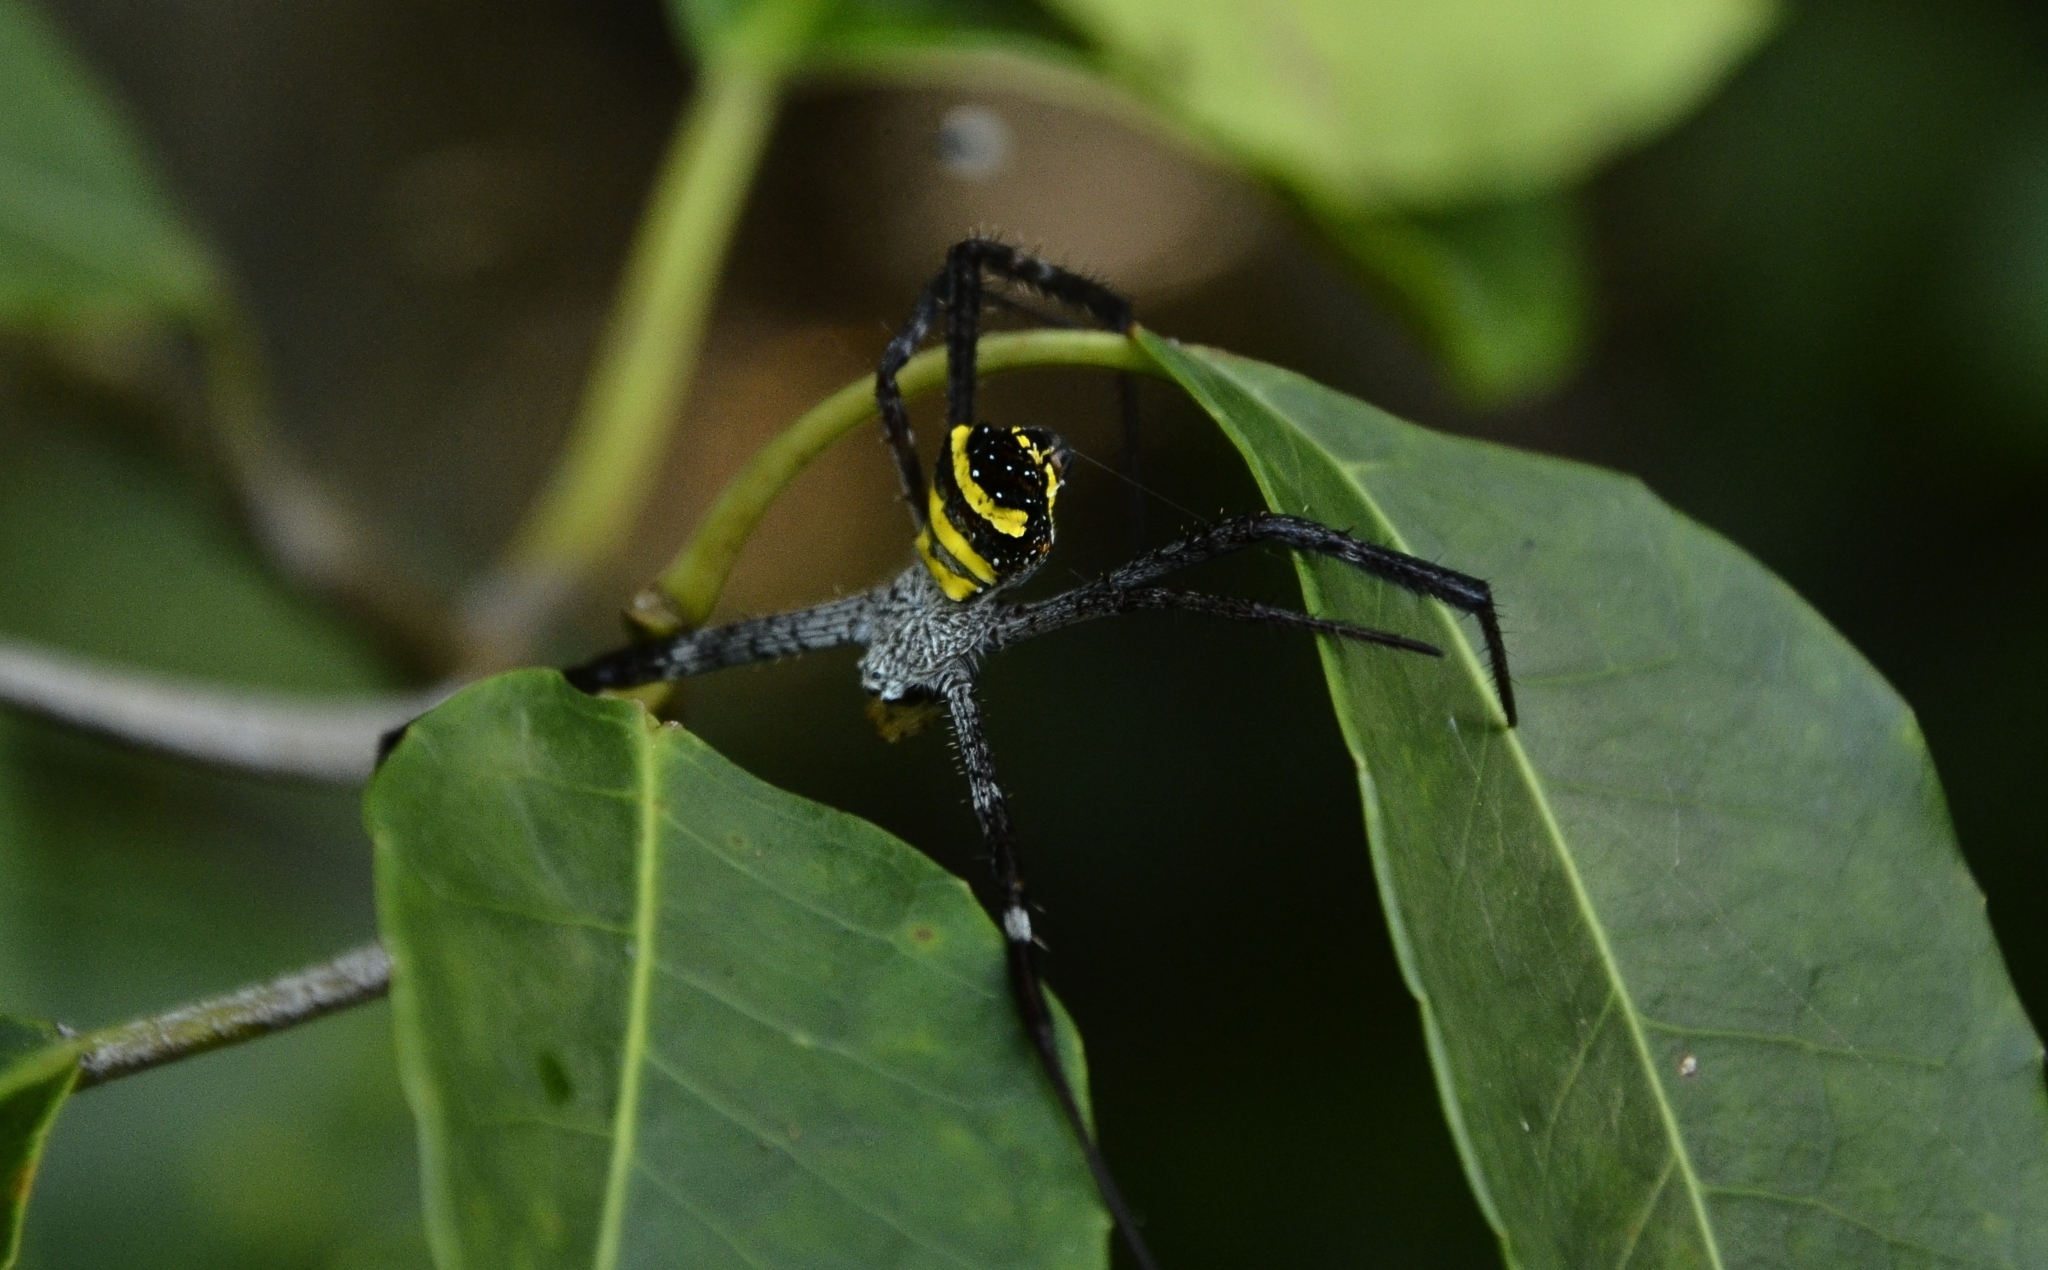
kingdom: Animalia
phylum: Arthropoda
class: Arachnida
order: Araneae
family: Araneidae
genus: Argiope
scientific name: Argiope taprobanica
